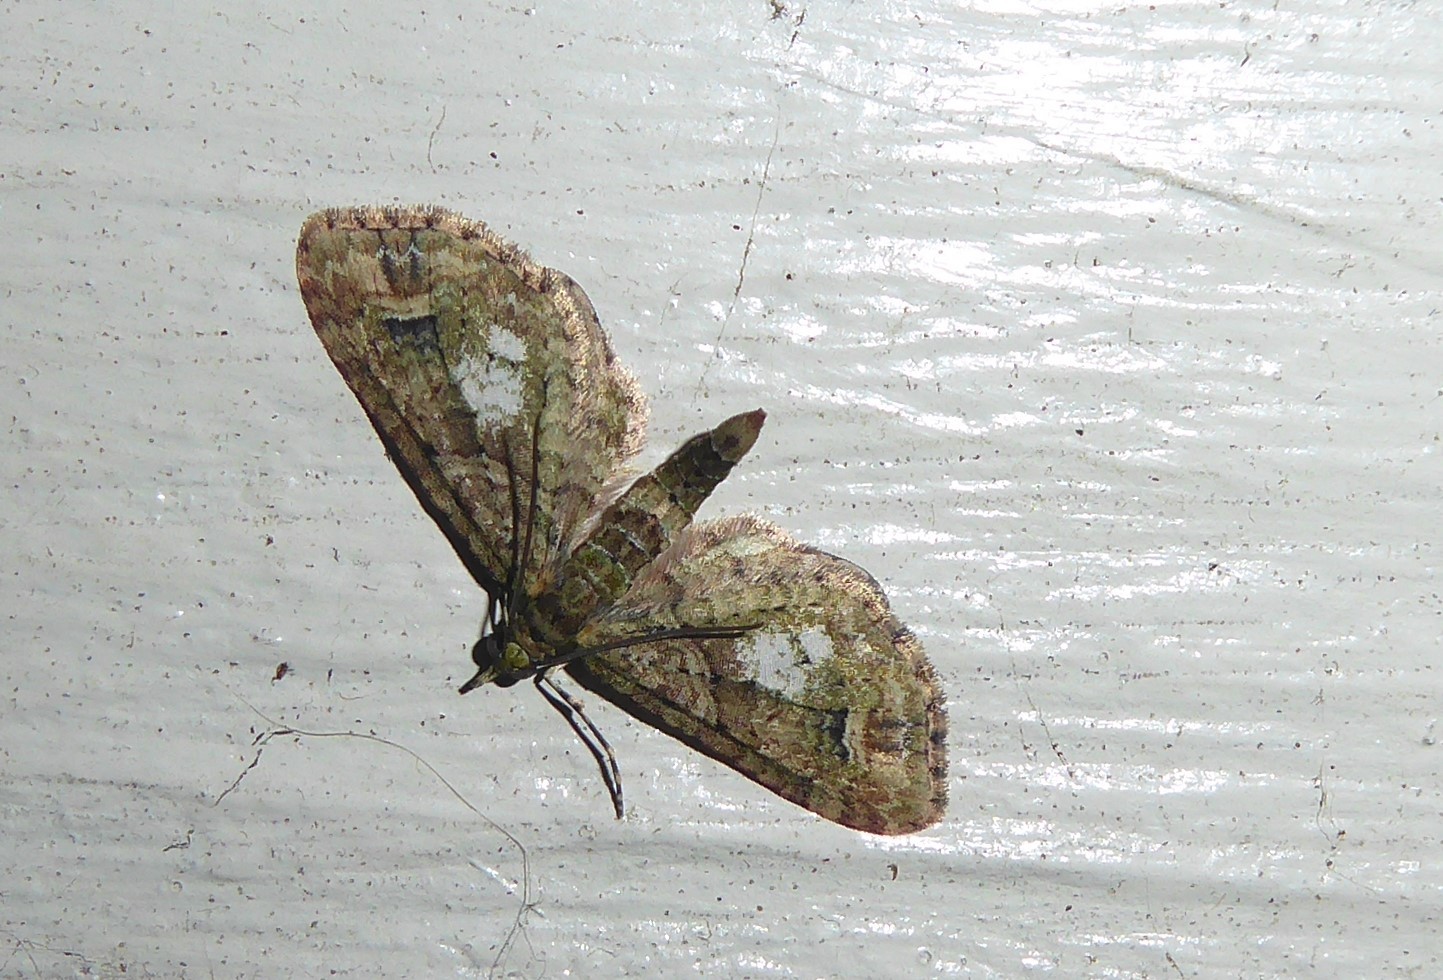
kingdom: Animalia
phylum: Arthropoda
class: Insecta
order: Lepidoptera
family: Geometridae
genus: Idaea
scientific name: Idaea mutanda
